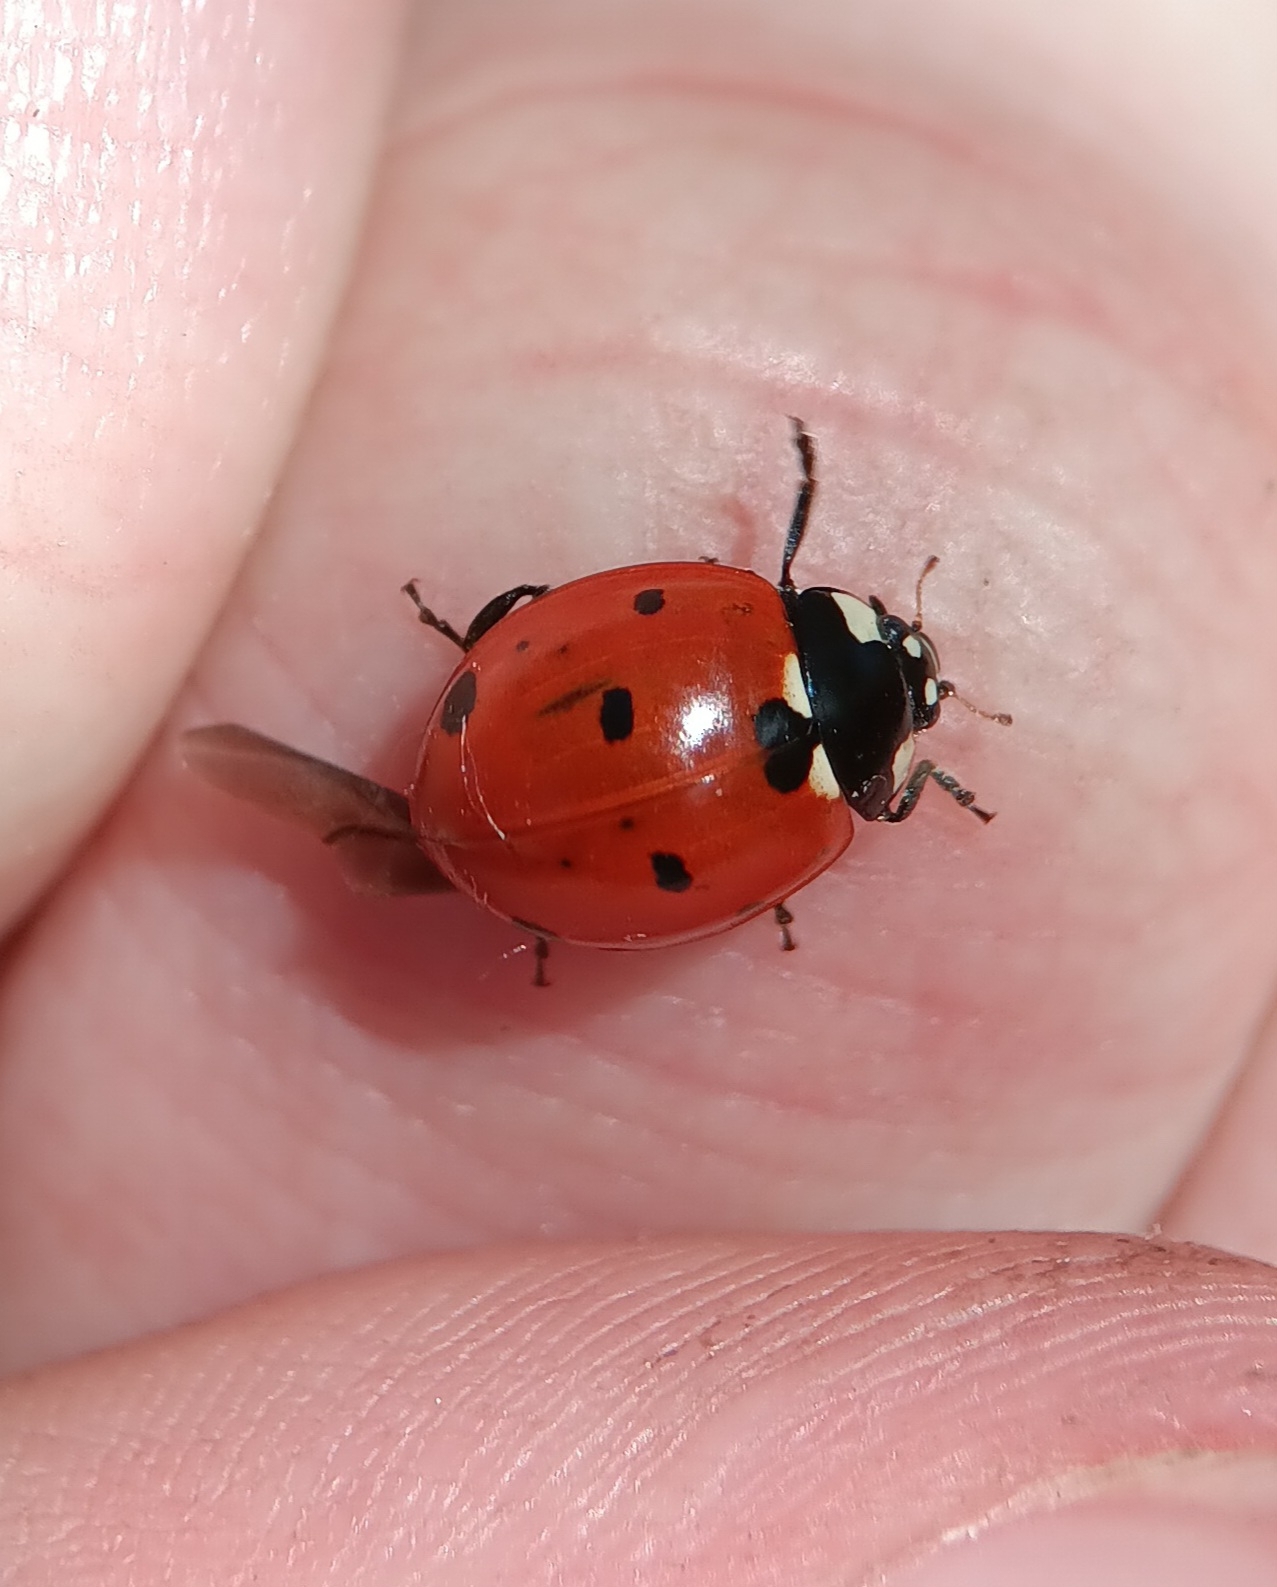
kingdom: Animalia
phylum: Arthropoda
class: Insecta
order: Coleoptera
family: Coccinellidae
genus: Coccinella
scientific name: Coccinella septempunctata
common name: Sevenspotted lady beetle
